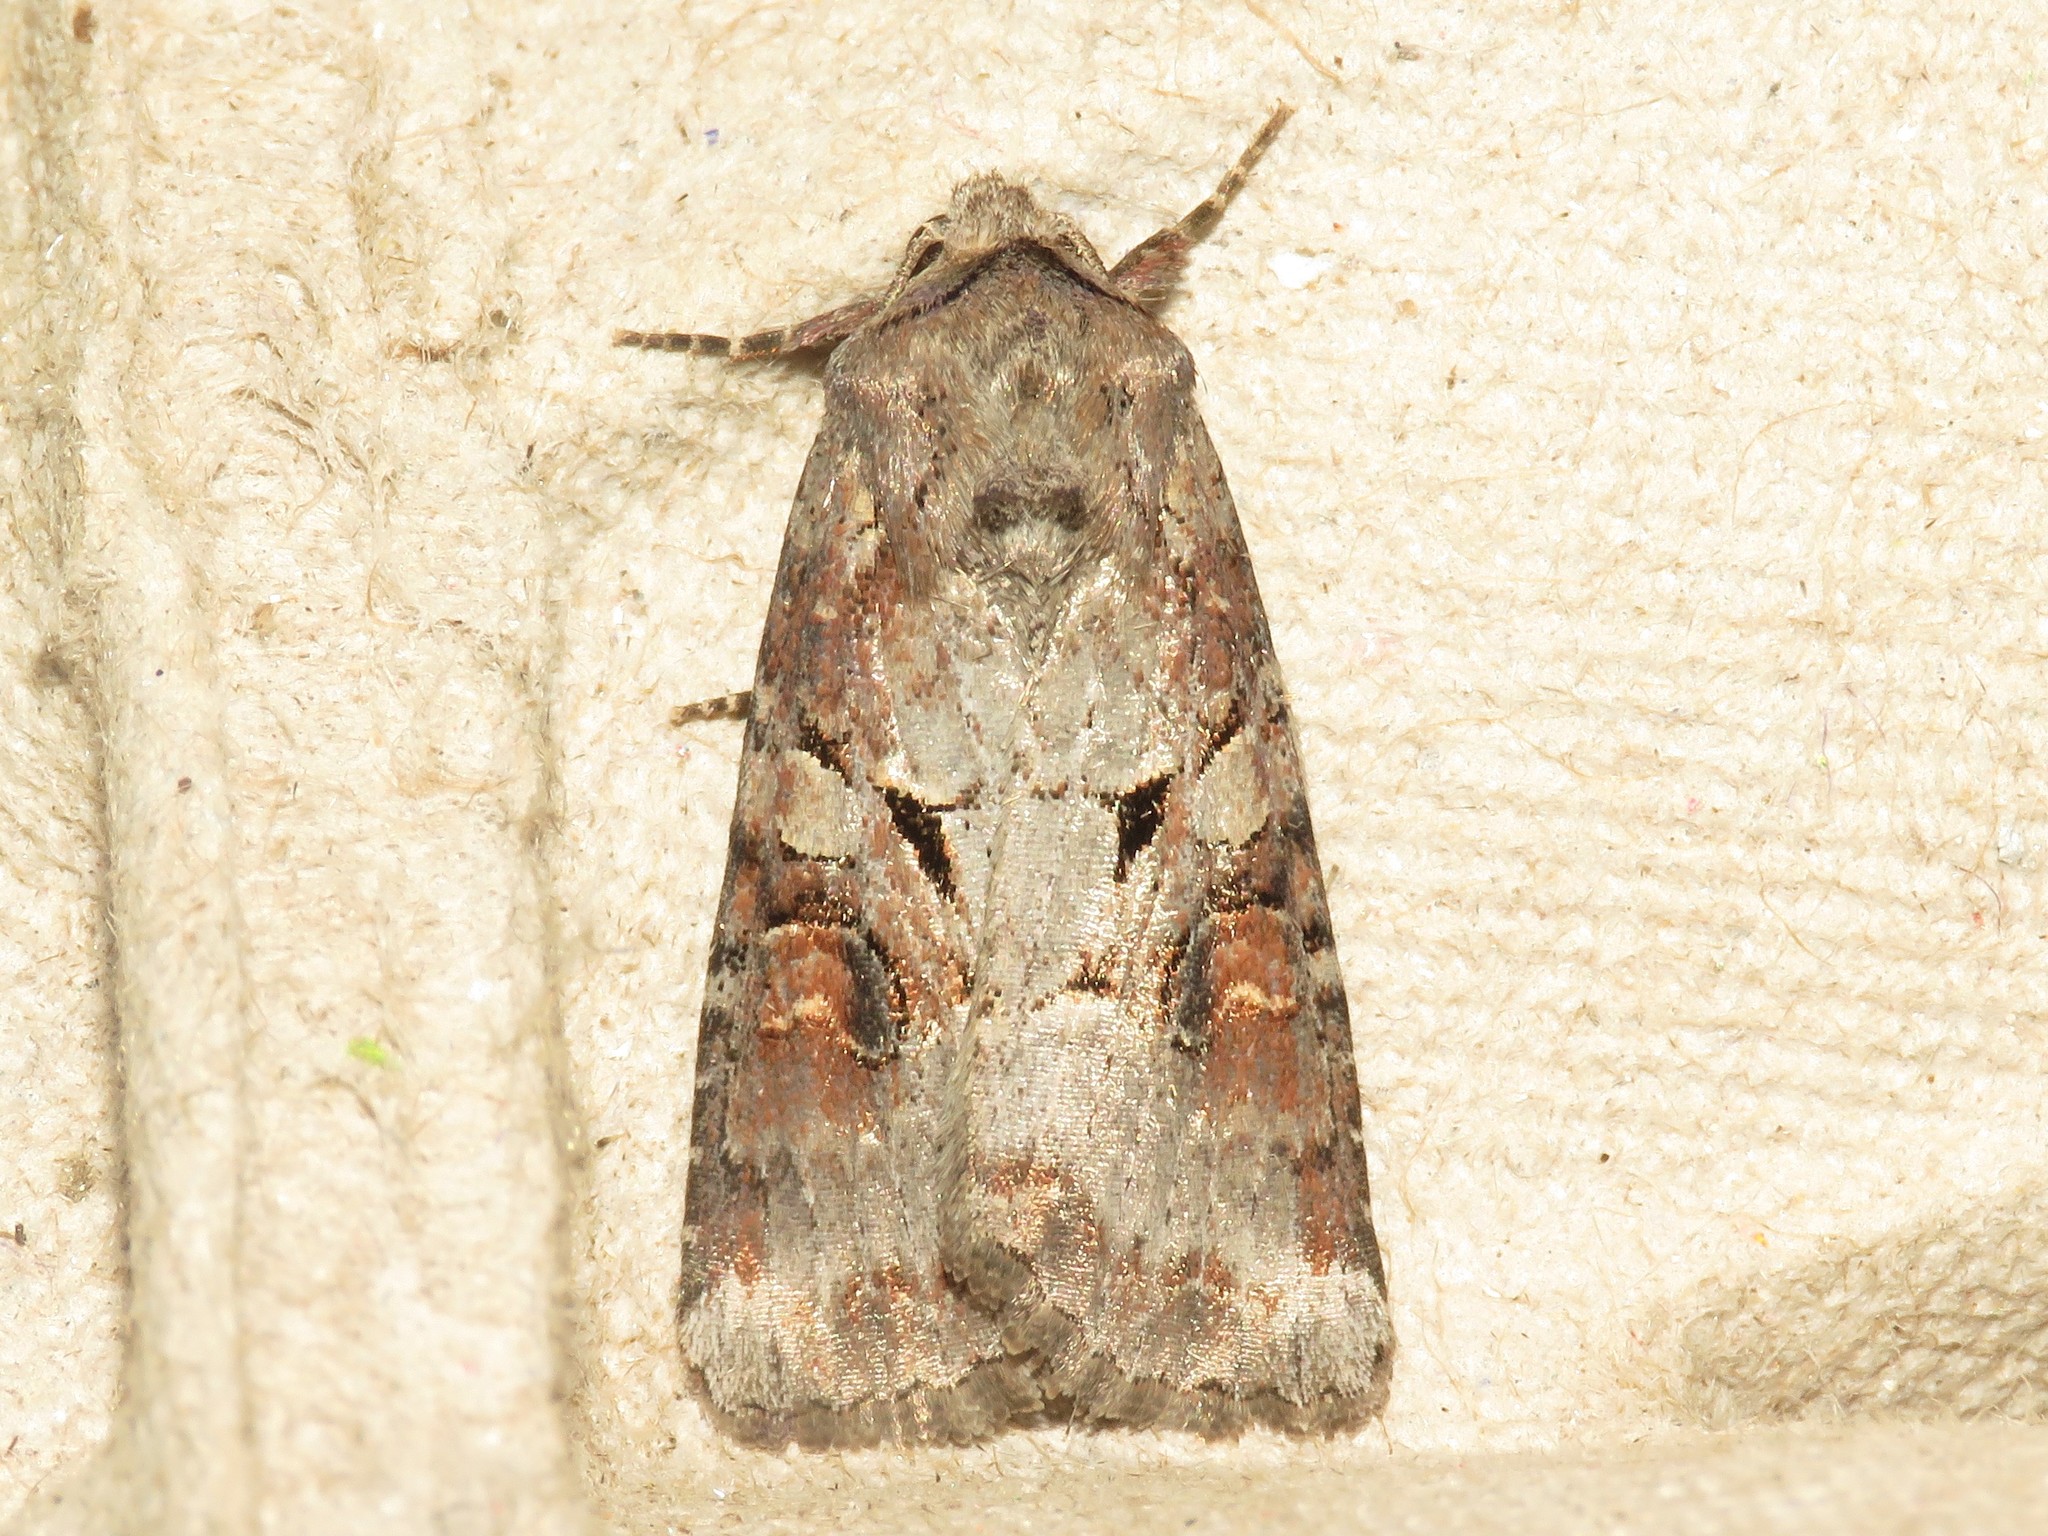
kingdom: Animalia
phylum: Arthropoda
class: Insecta
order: Lepidoptera
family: Noctuidae
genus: Trichordestra
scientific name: Trichordestra legitima
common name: Striped garden caterpillar
